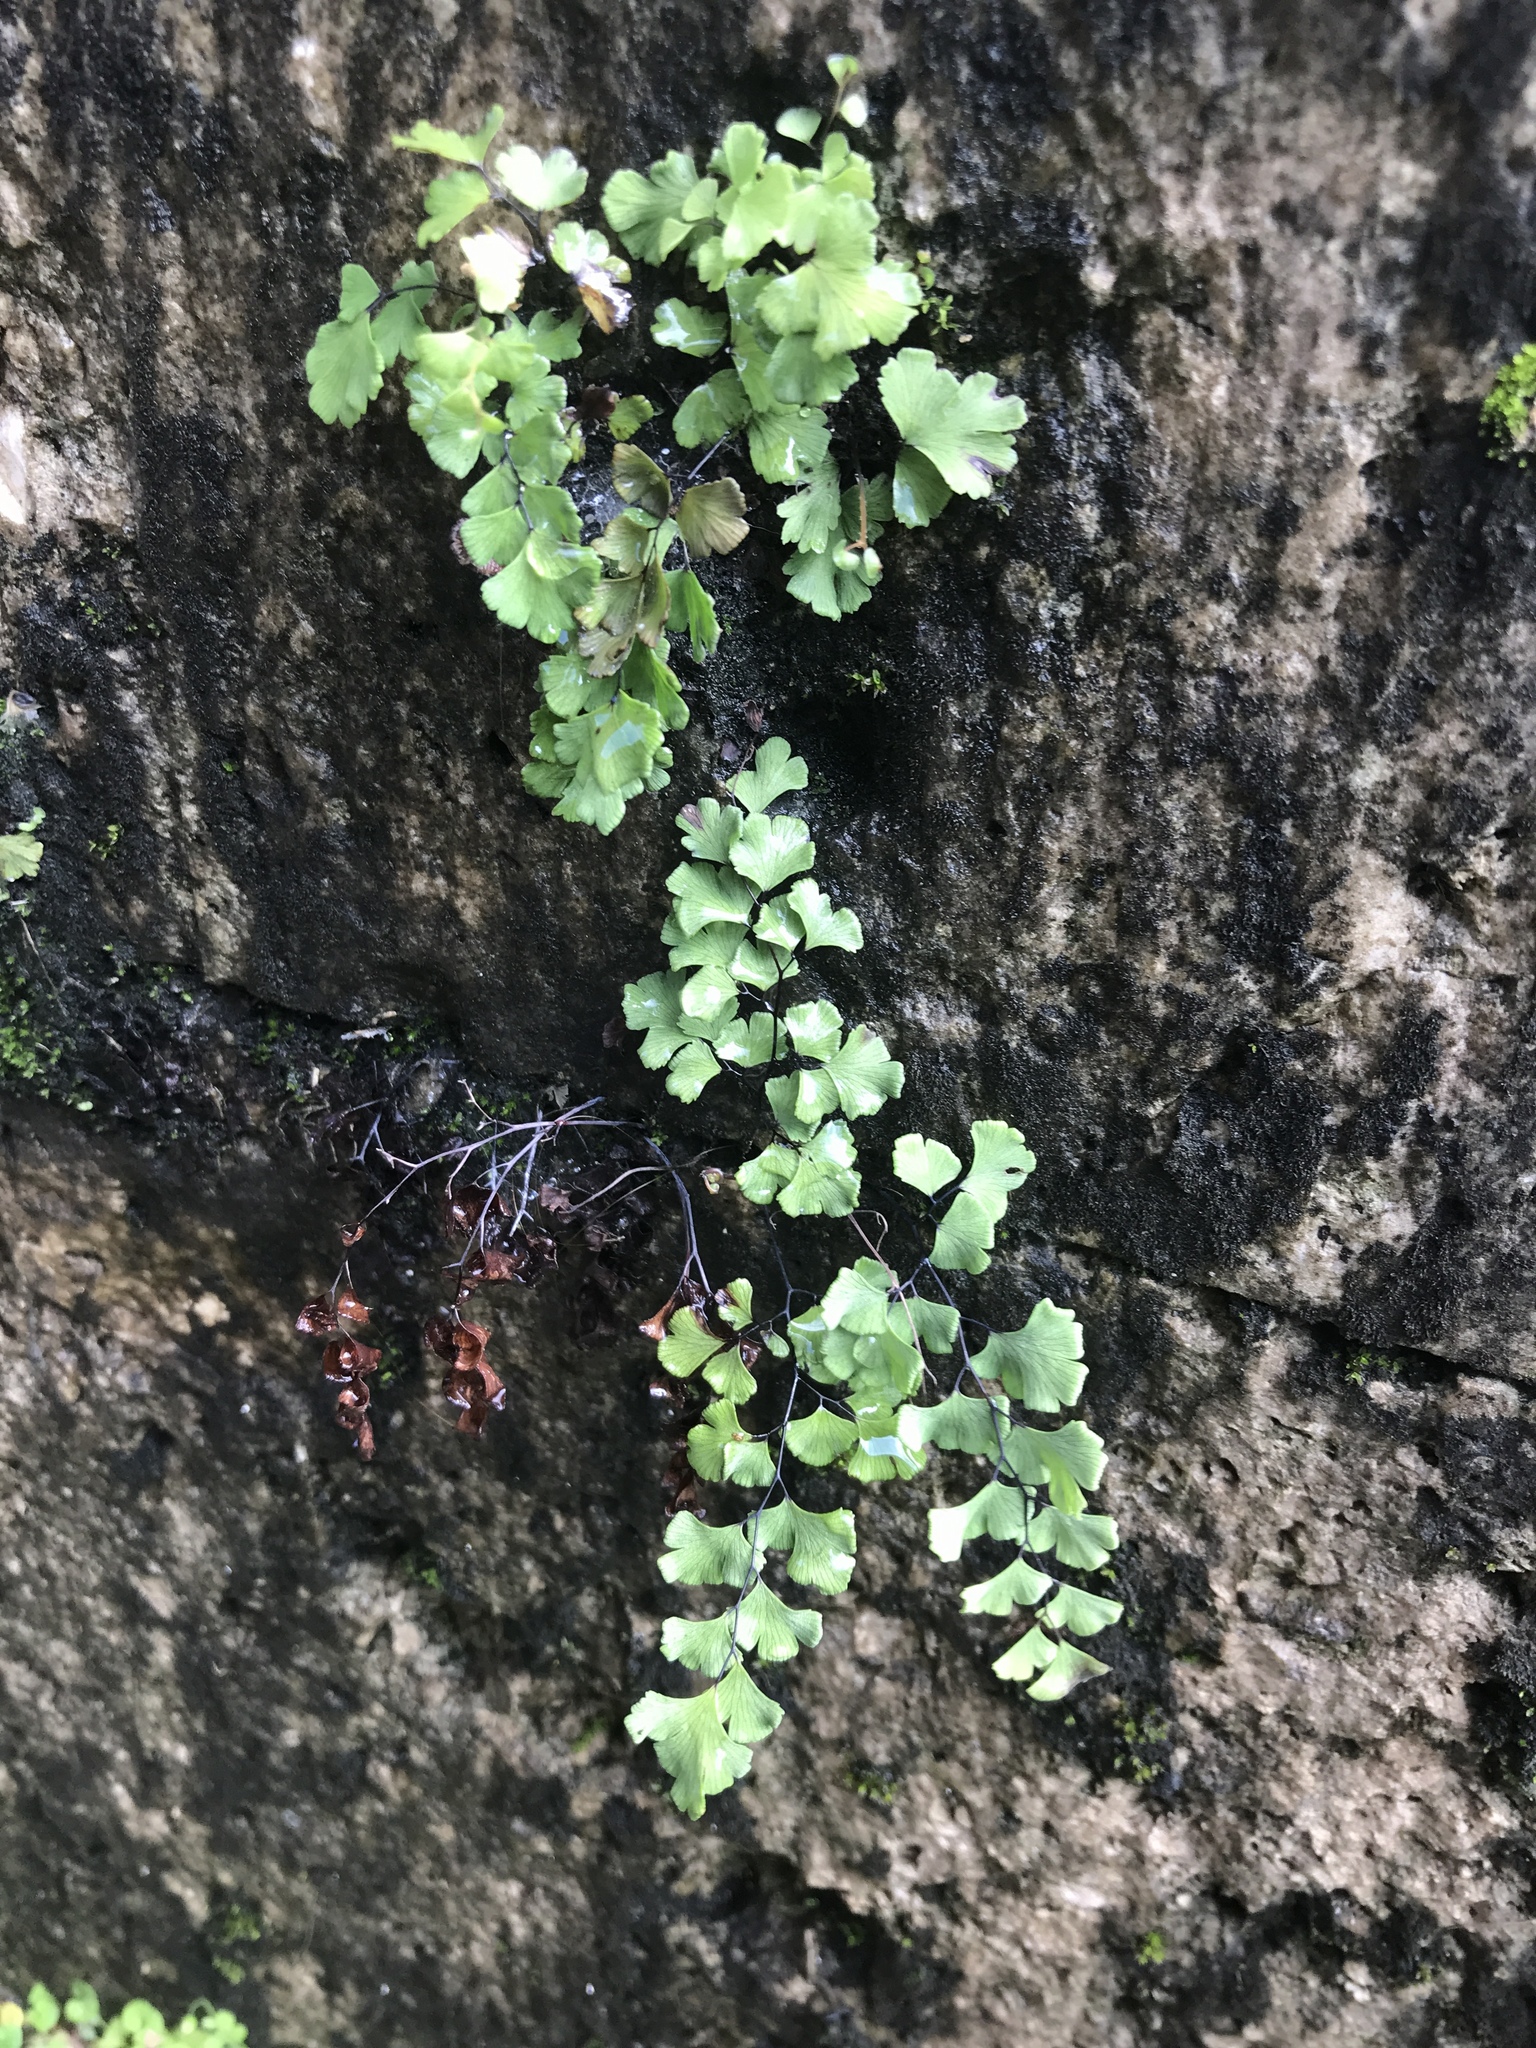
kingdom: Plantae
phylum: Tracheophyta
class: Polypodiopsida
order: Polypodiales
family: Pteridaceae
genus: Adiantum
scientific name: Adiantum capillus-veneris
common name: Maidenhair fern
